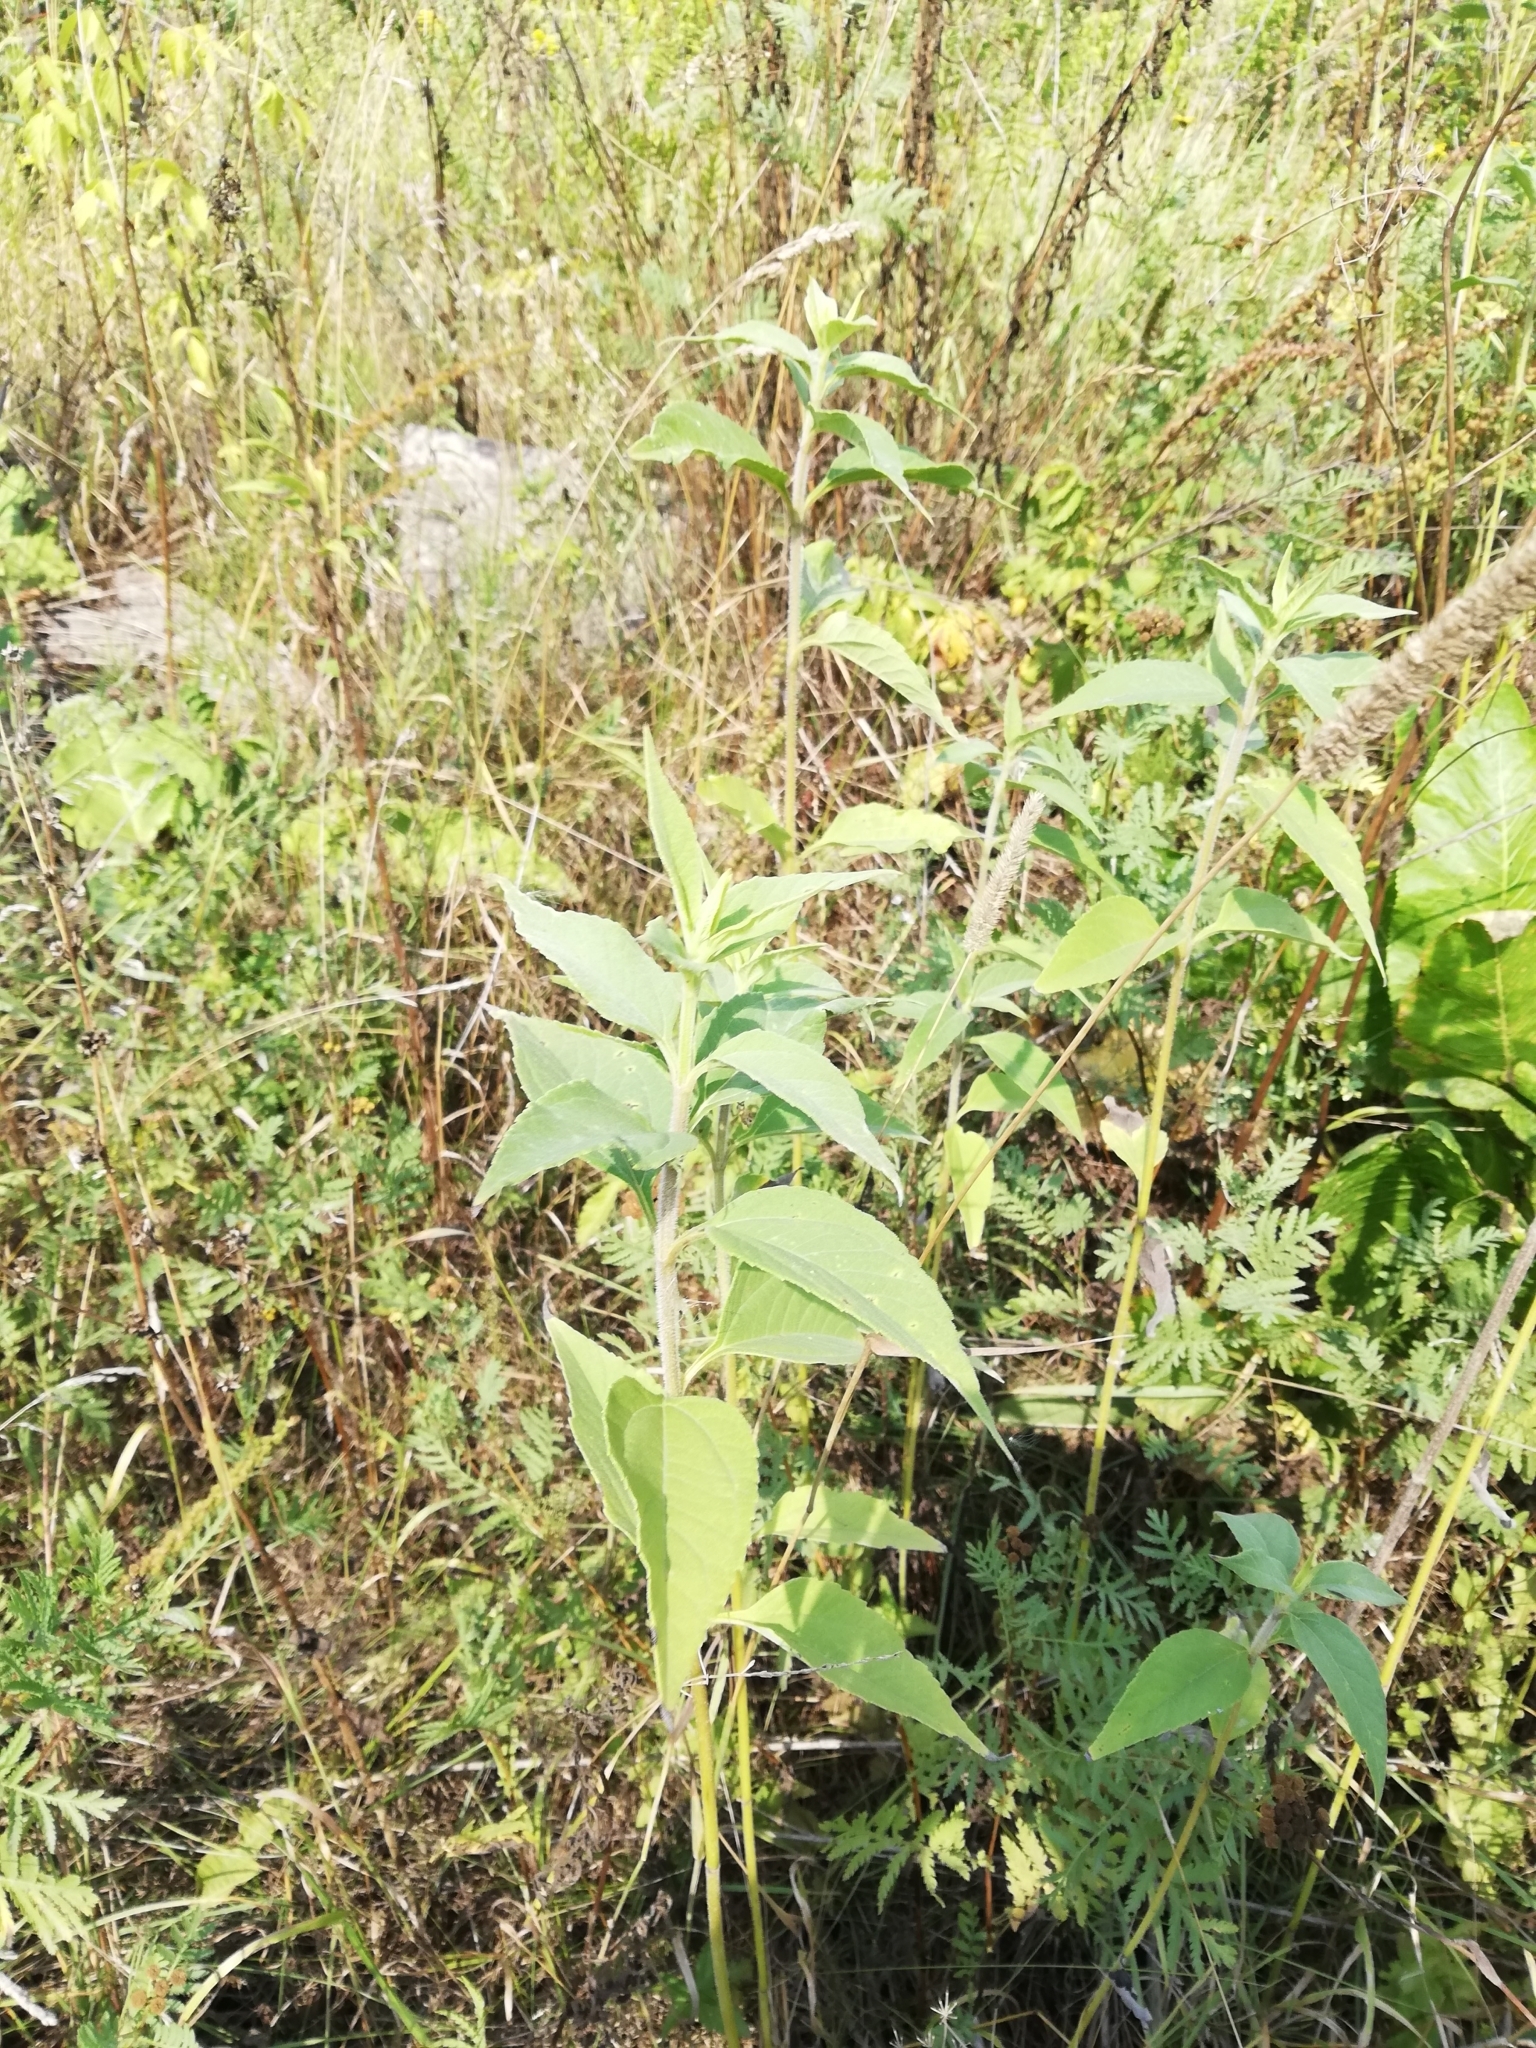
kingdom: Plantae
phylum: Tracheophyta
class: Magnoliopsida
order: Asterales
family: Asteraceae
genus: Helianthus
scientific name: Helianthus tuberosus
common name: Jerusalem artichoke
